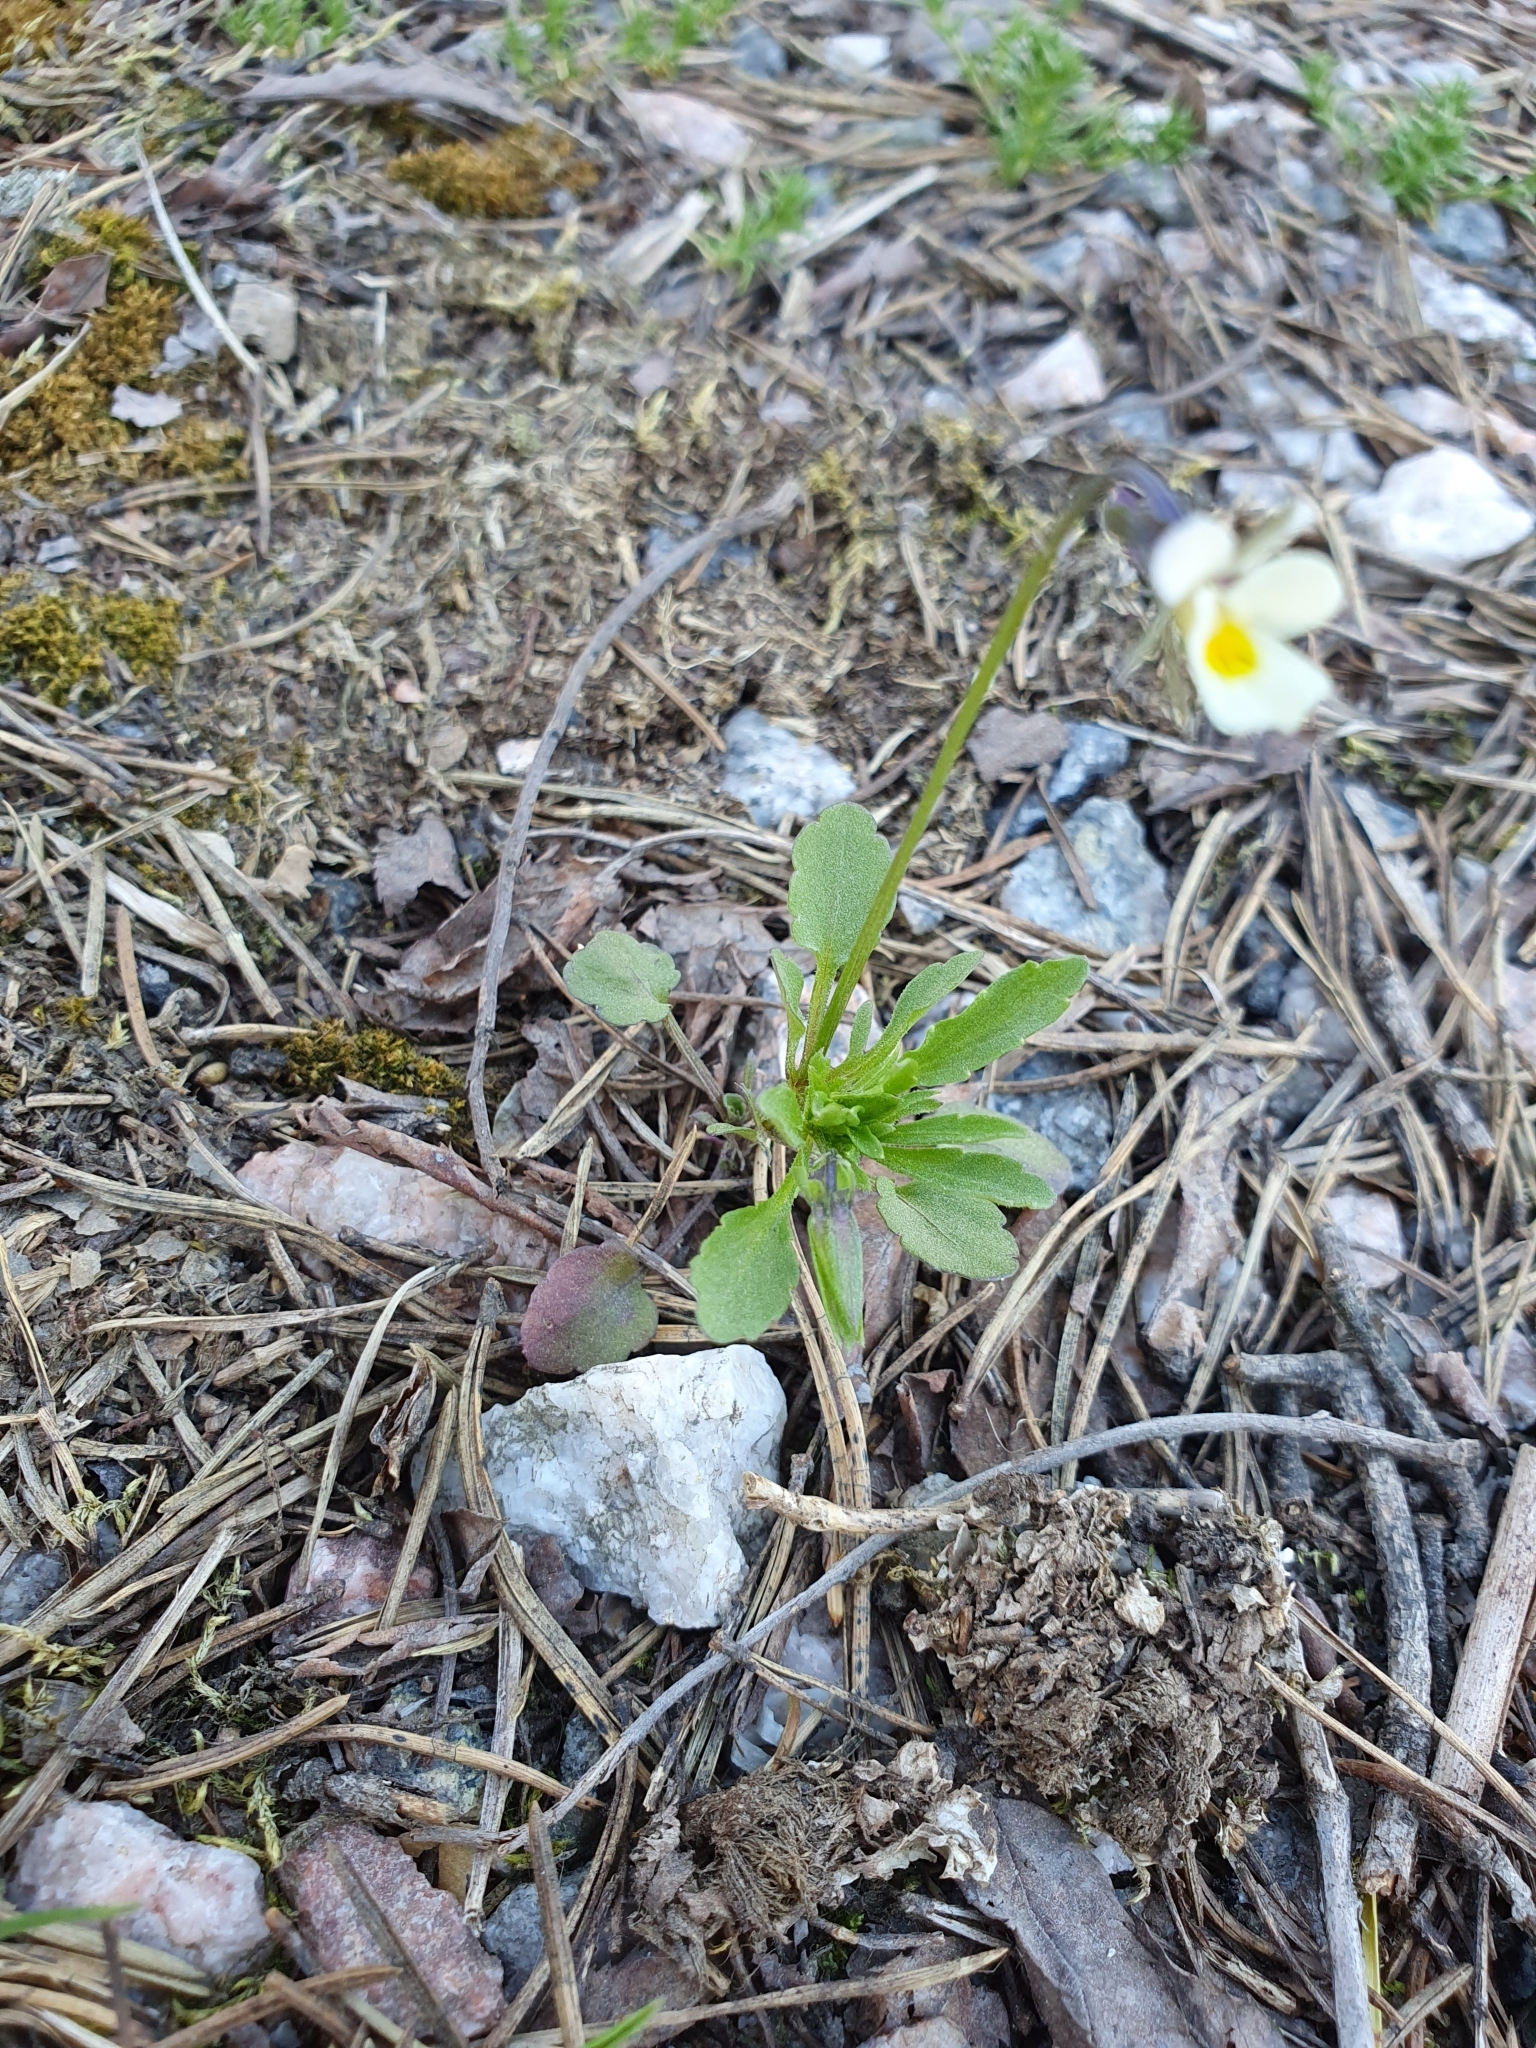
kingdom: Plantae
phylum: Tracheophyta
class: Magnoliopsida
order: Malpighiales
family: Violaceae
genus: Viola
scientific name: Viola arvensis
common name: Field pansy
